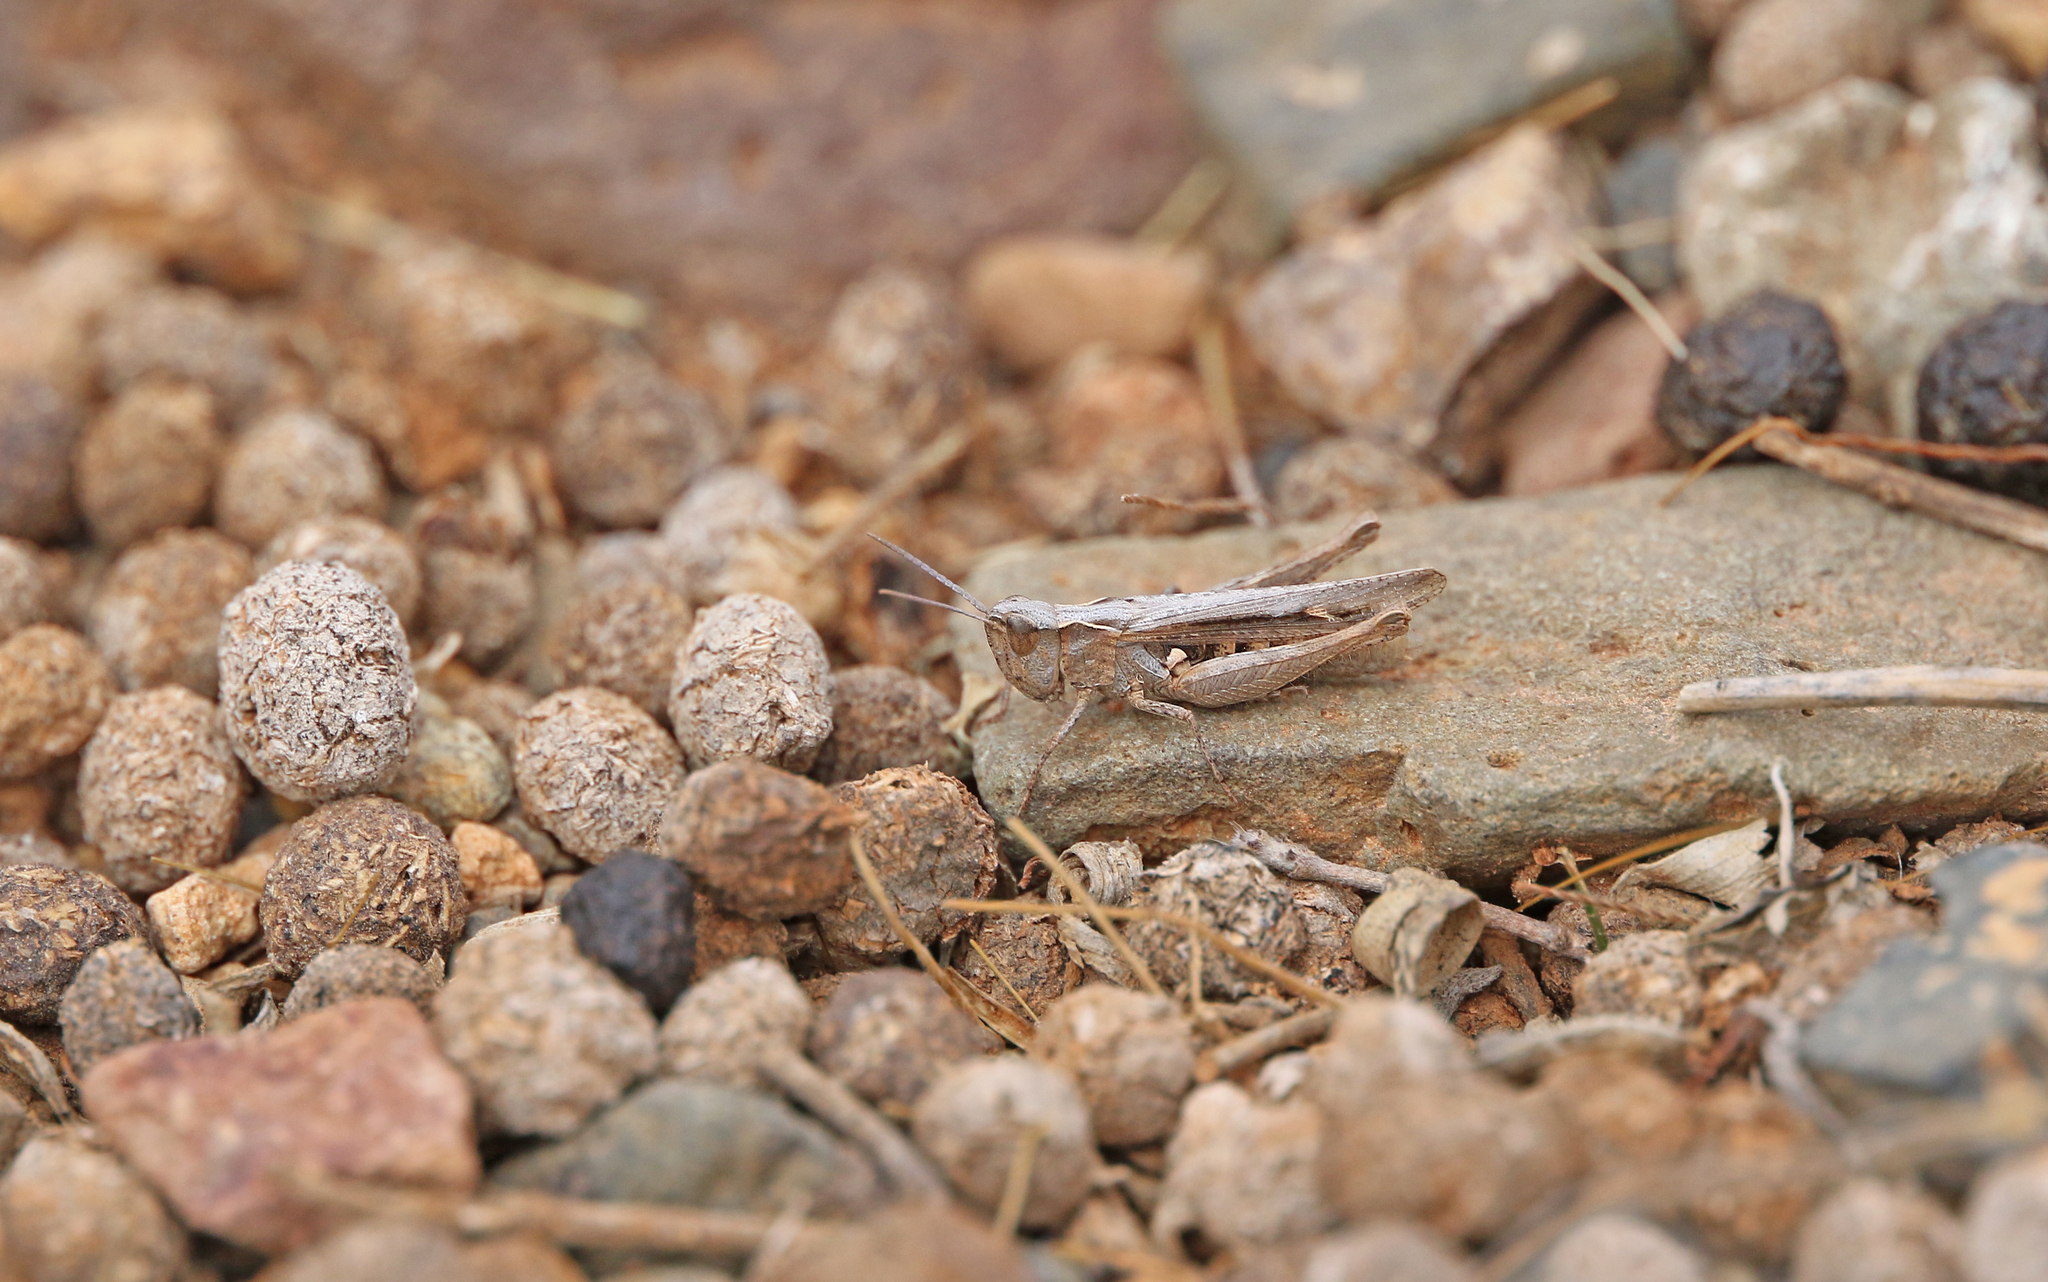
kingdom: Animalia
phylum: Arthropoda
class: Insecta
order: Orthoptera
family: Acrididae
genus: Omocestus
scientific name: Omocestus simonyi
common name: Purpurarian grasshopper
